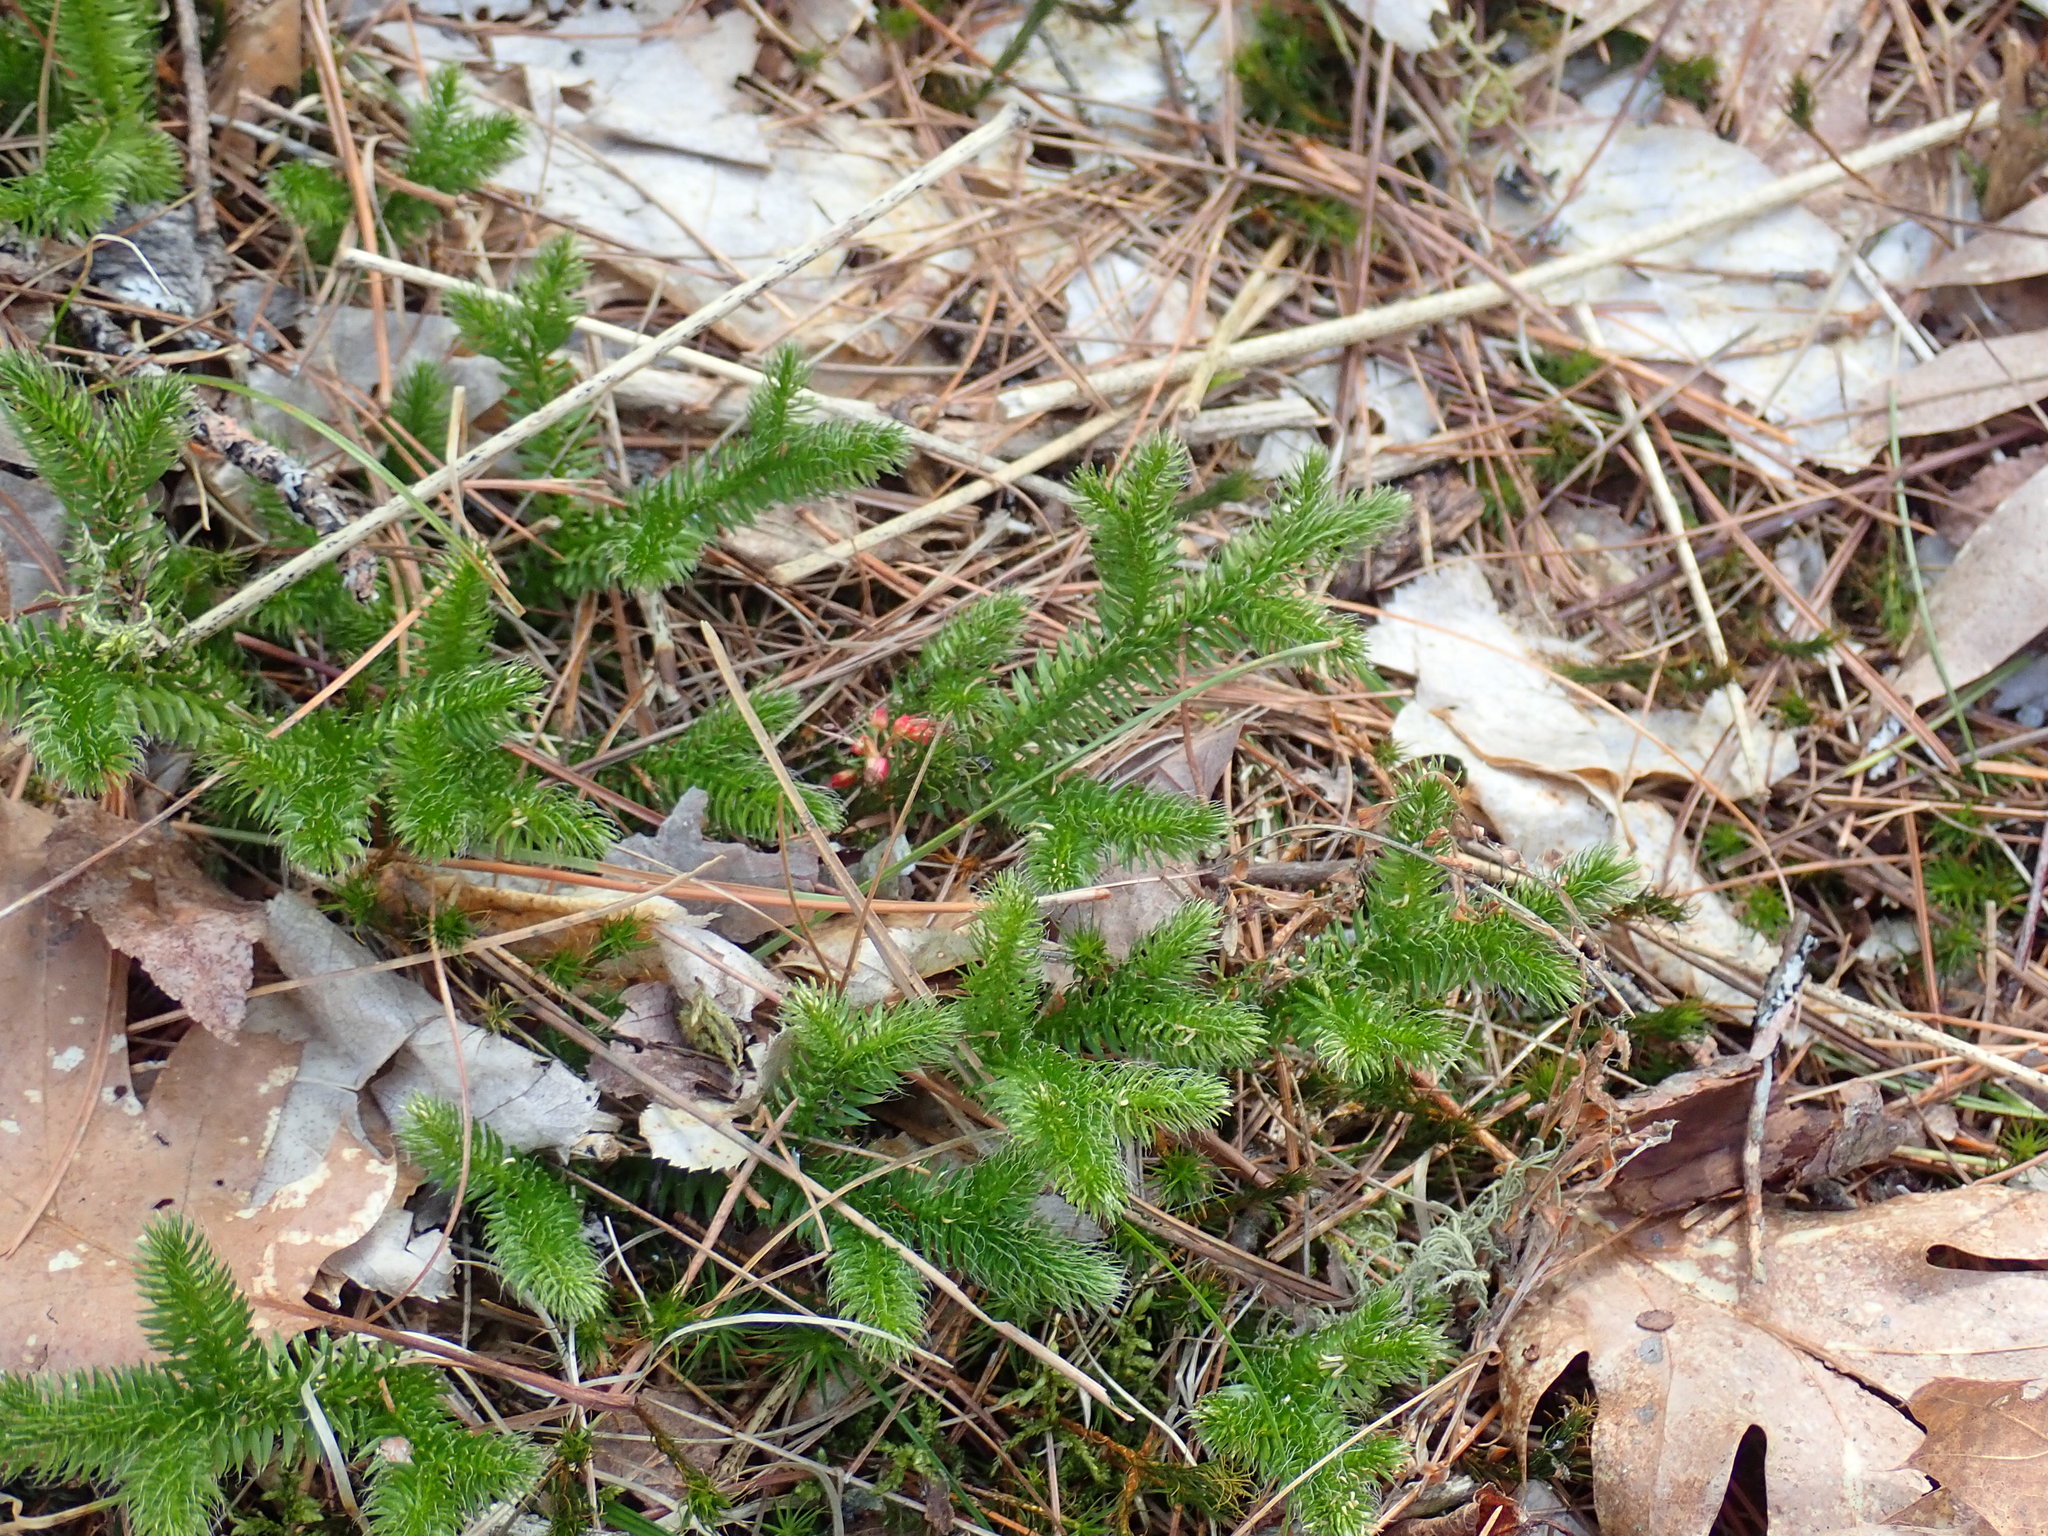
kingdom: Plantae
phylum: Tracheophyta
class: Lycopodiopsida
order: Lycopodiales
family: Lycopodiaceae
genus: Lycopodium
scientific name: Lycopodium clavatum
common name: Stag's-horn clubmoss
